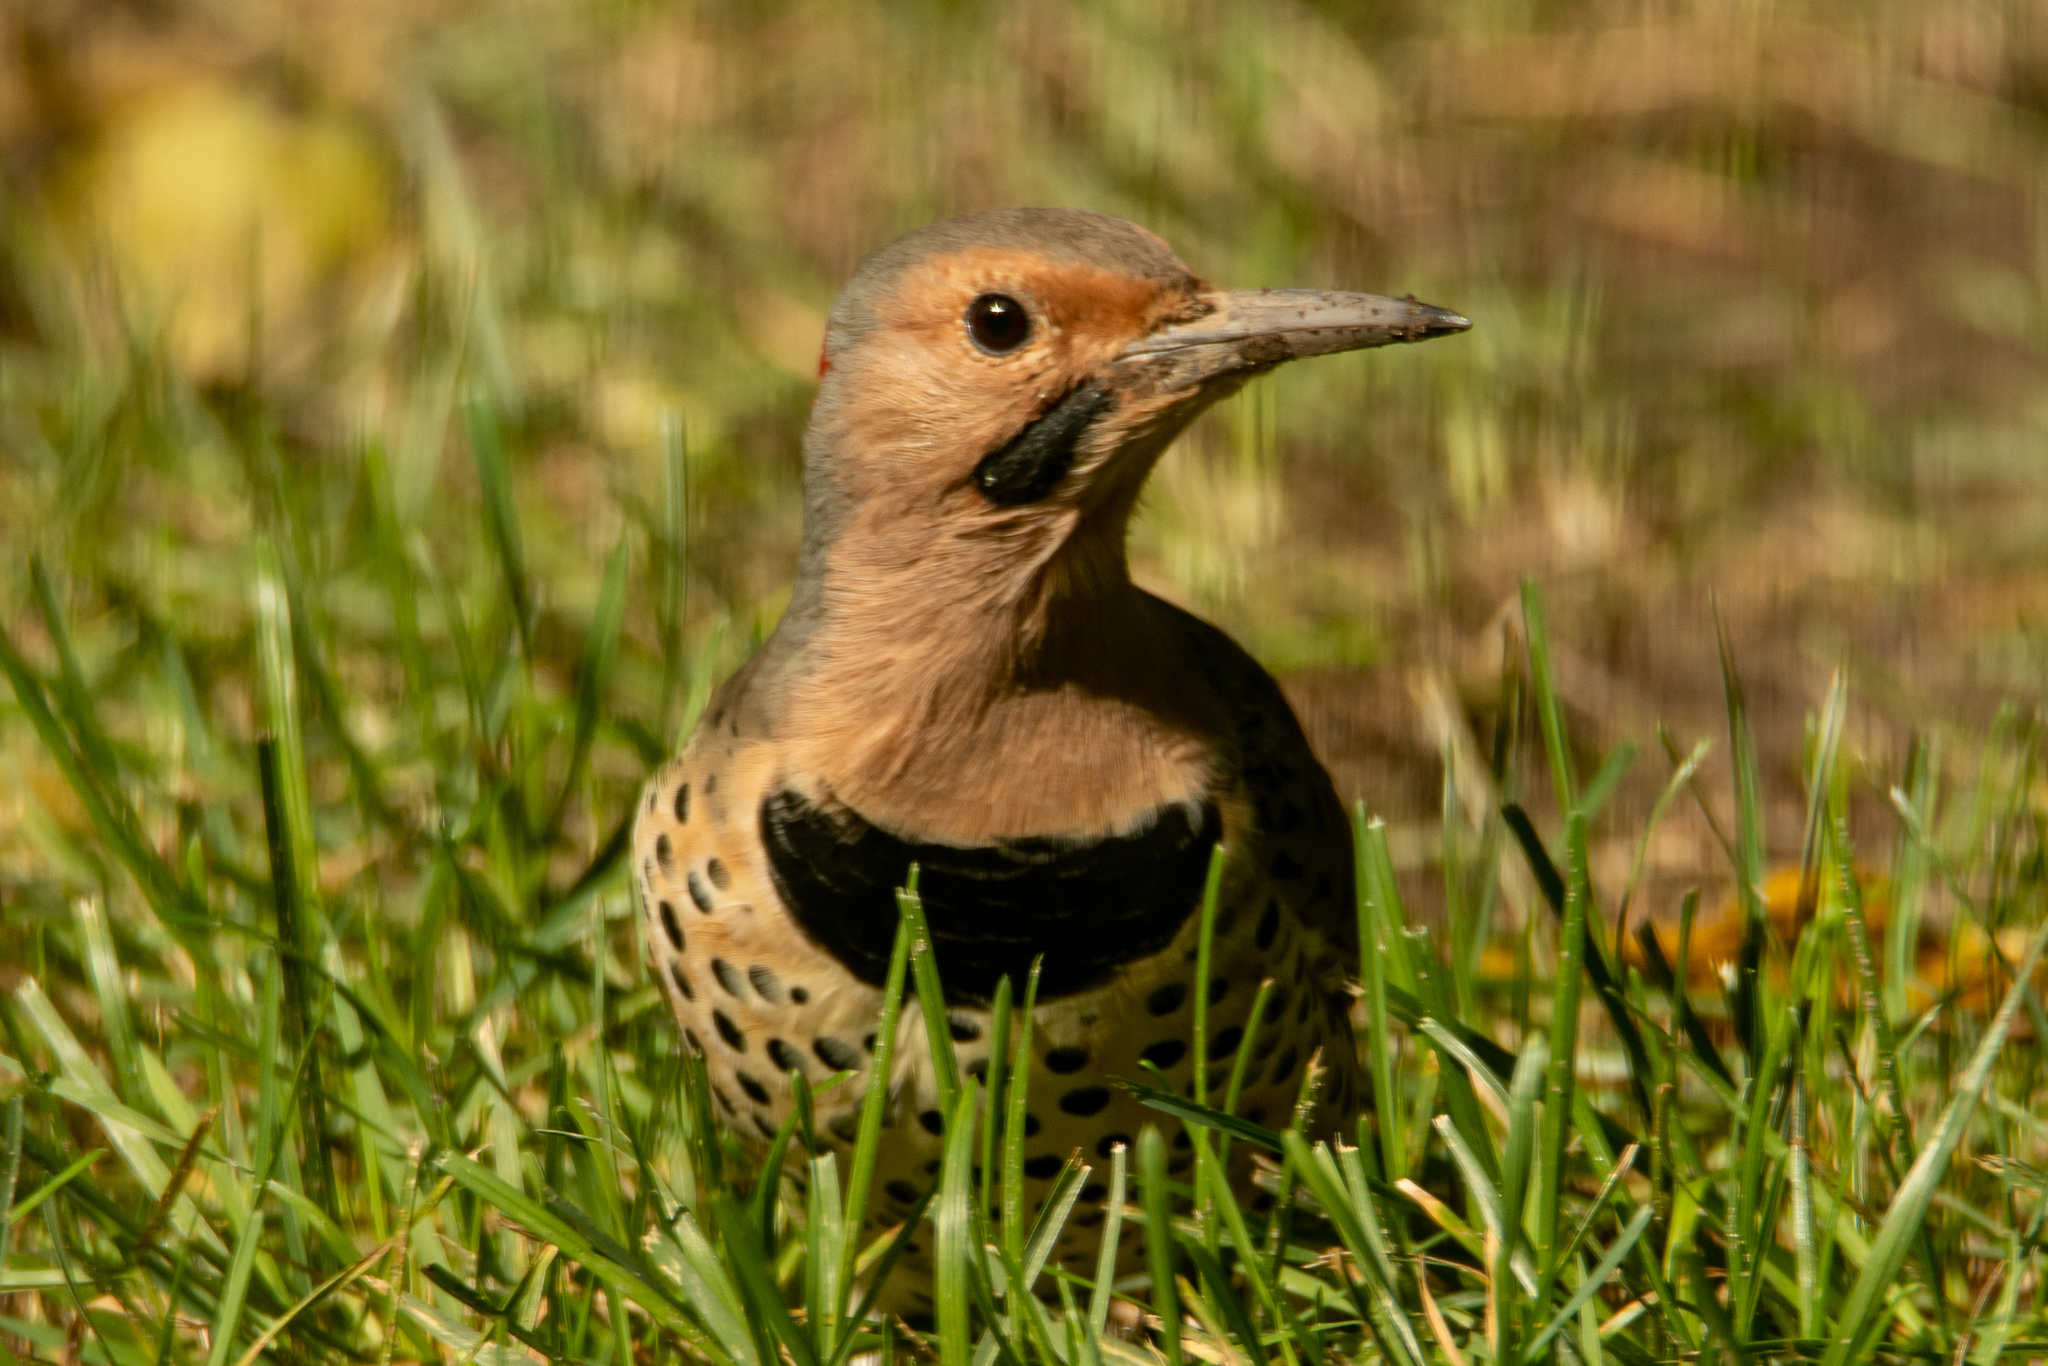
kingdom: Animalia
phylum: Chordata
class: Aves
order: Piciformes
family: Picidae
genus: Colaptes
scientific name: Colaptes auratus
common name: Northern flicker
